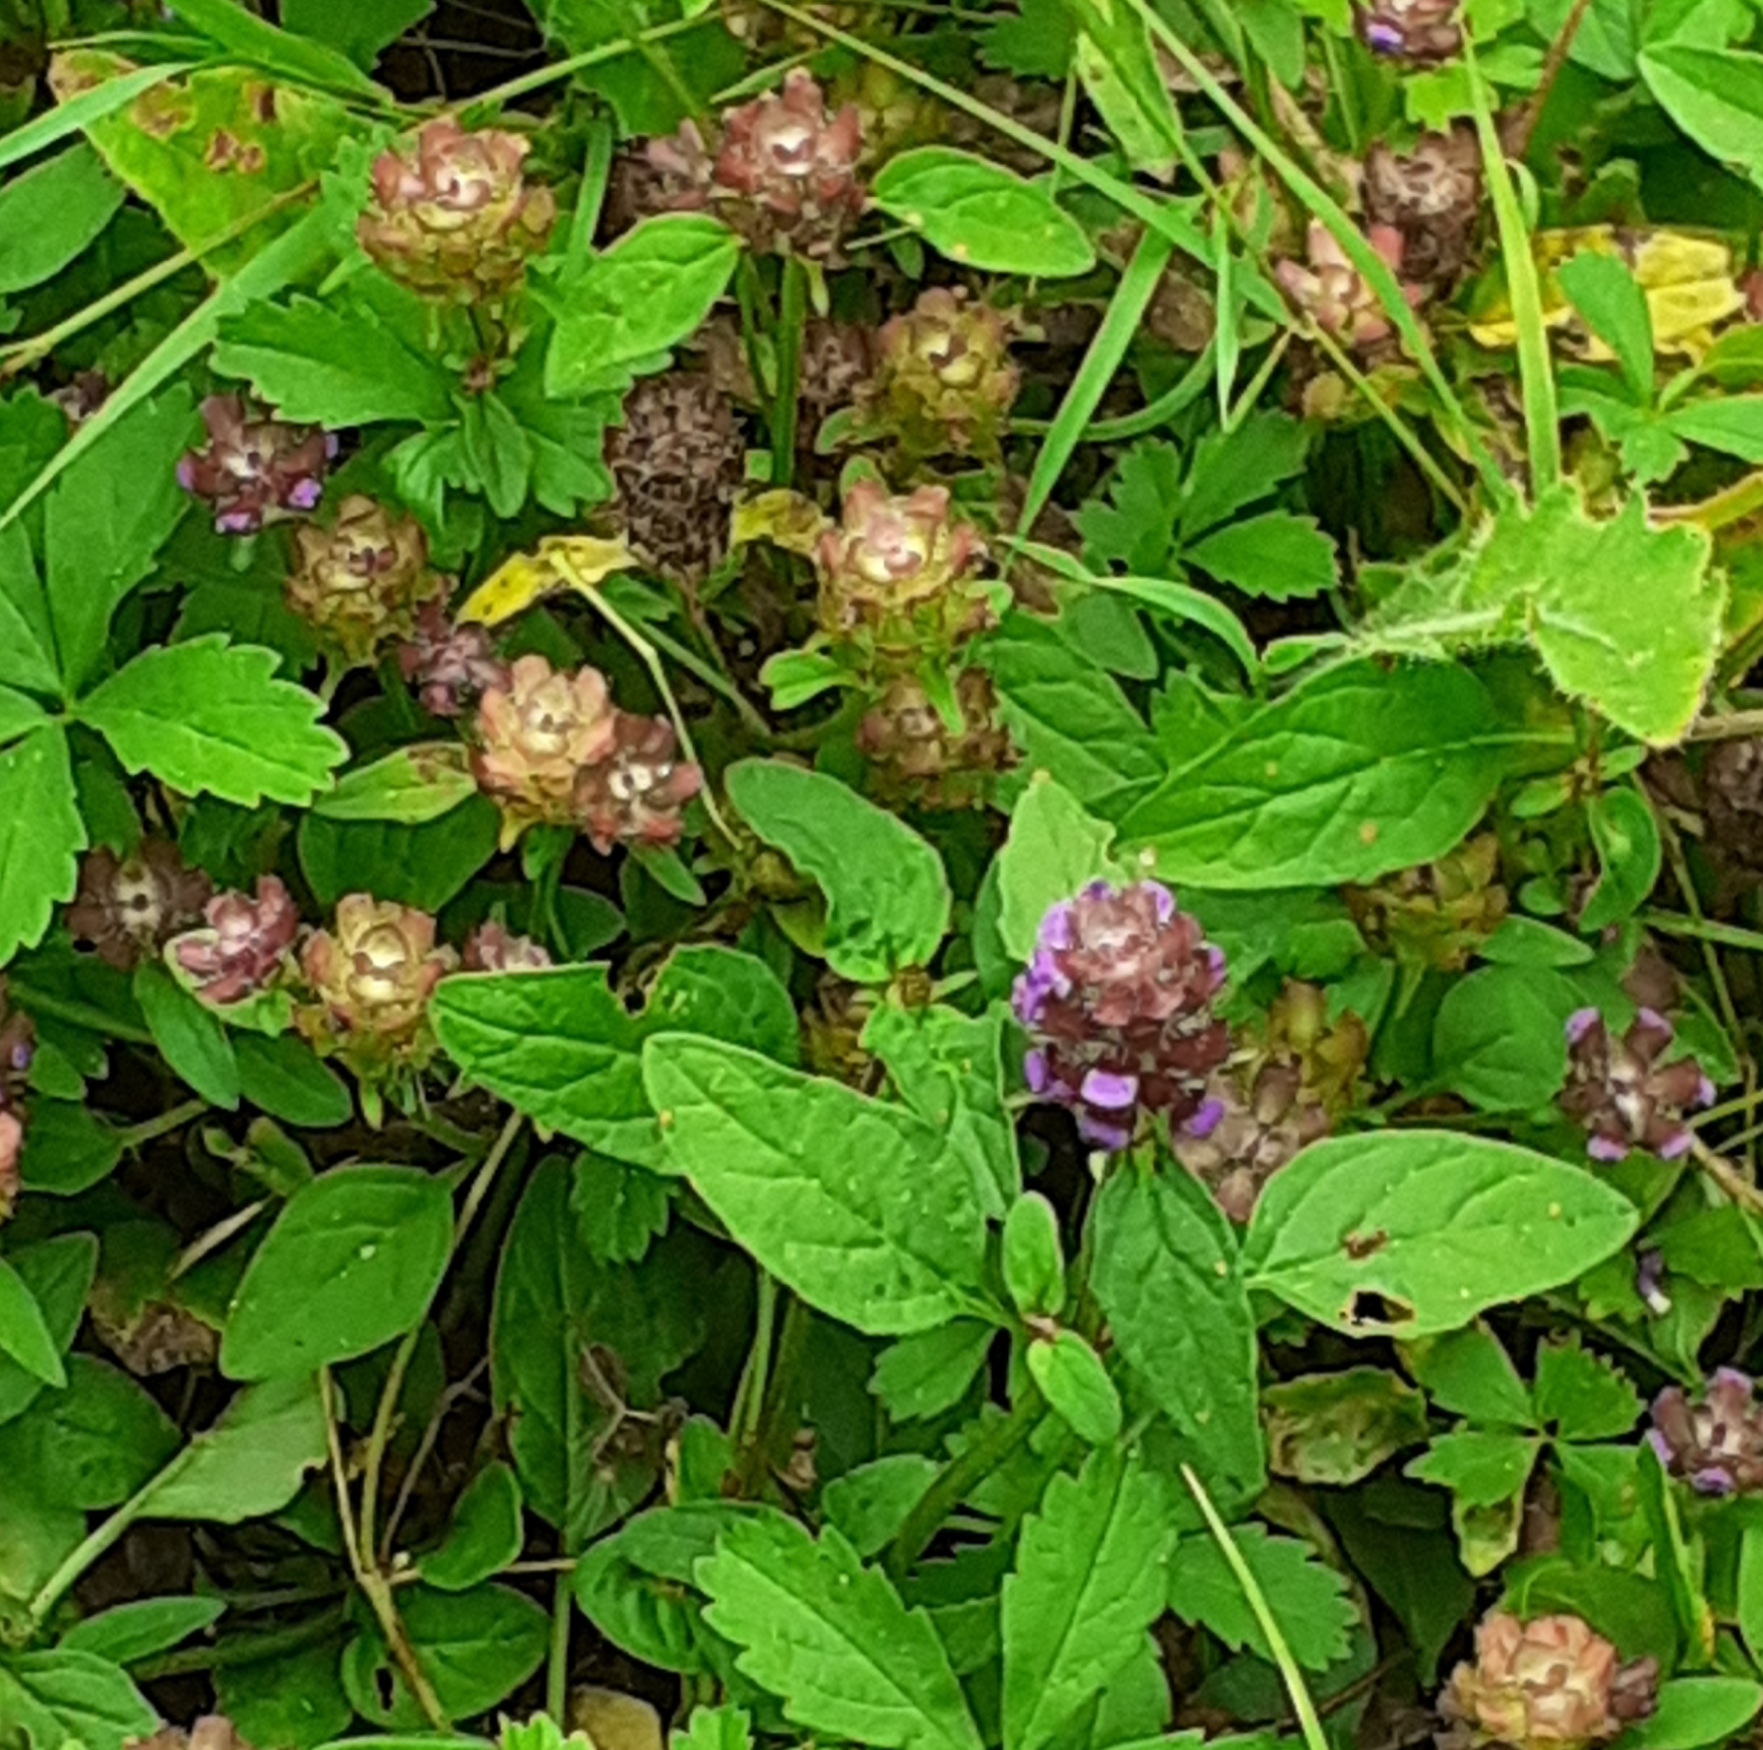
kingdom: Plantae
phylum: Tracheophyta
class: Magnoliopsida
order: Lamiales
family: Lamiaceae
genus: Prunella
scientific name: Prunella vulgaris
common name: Heal-all
